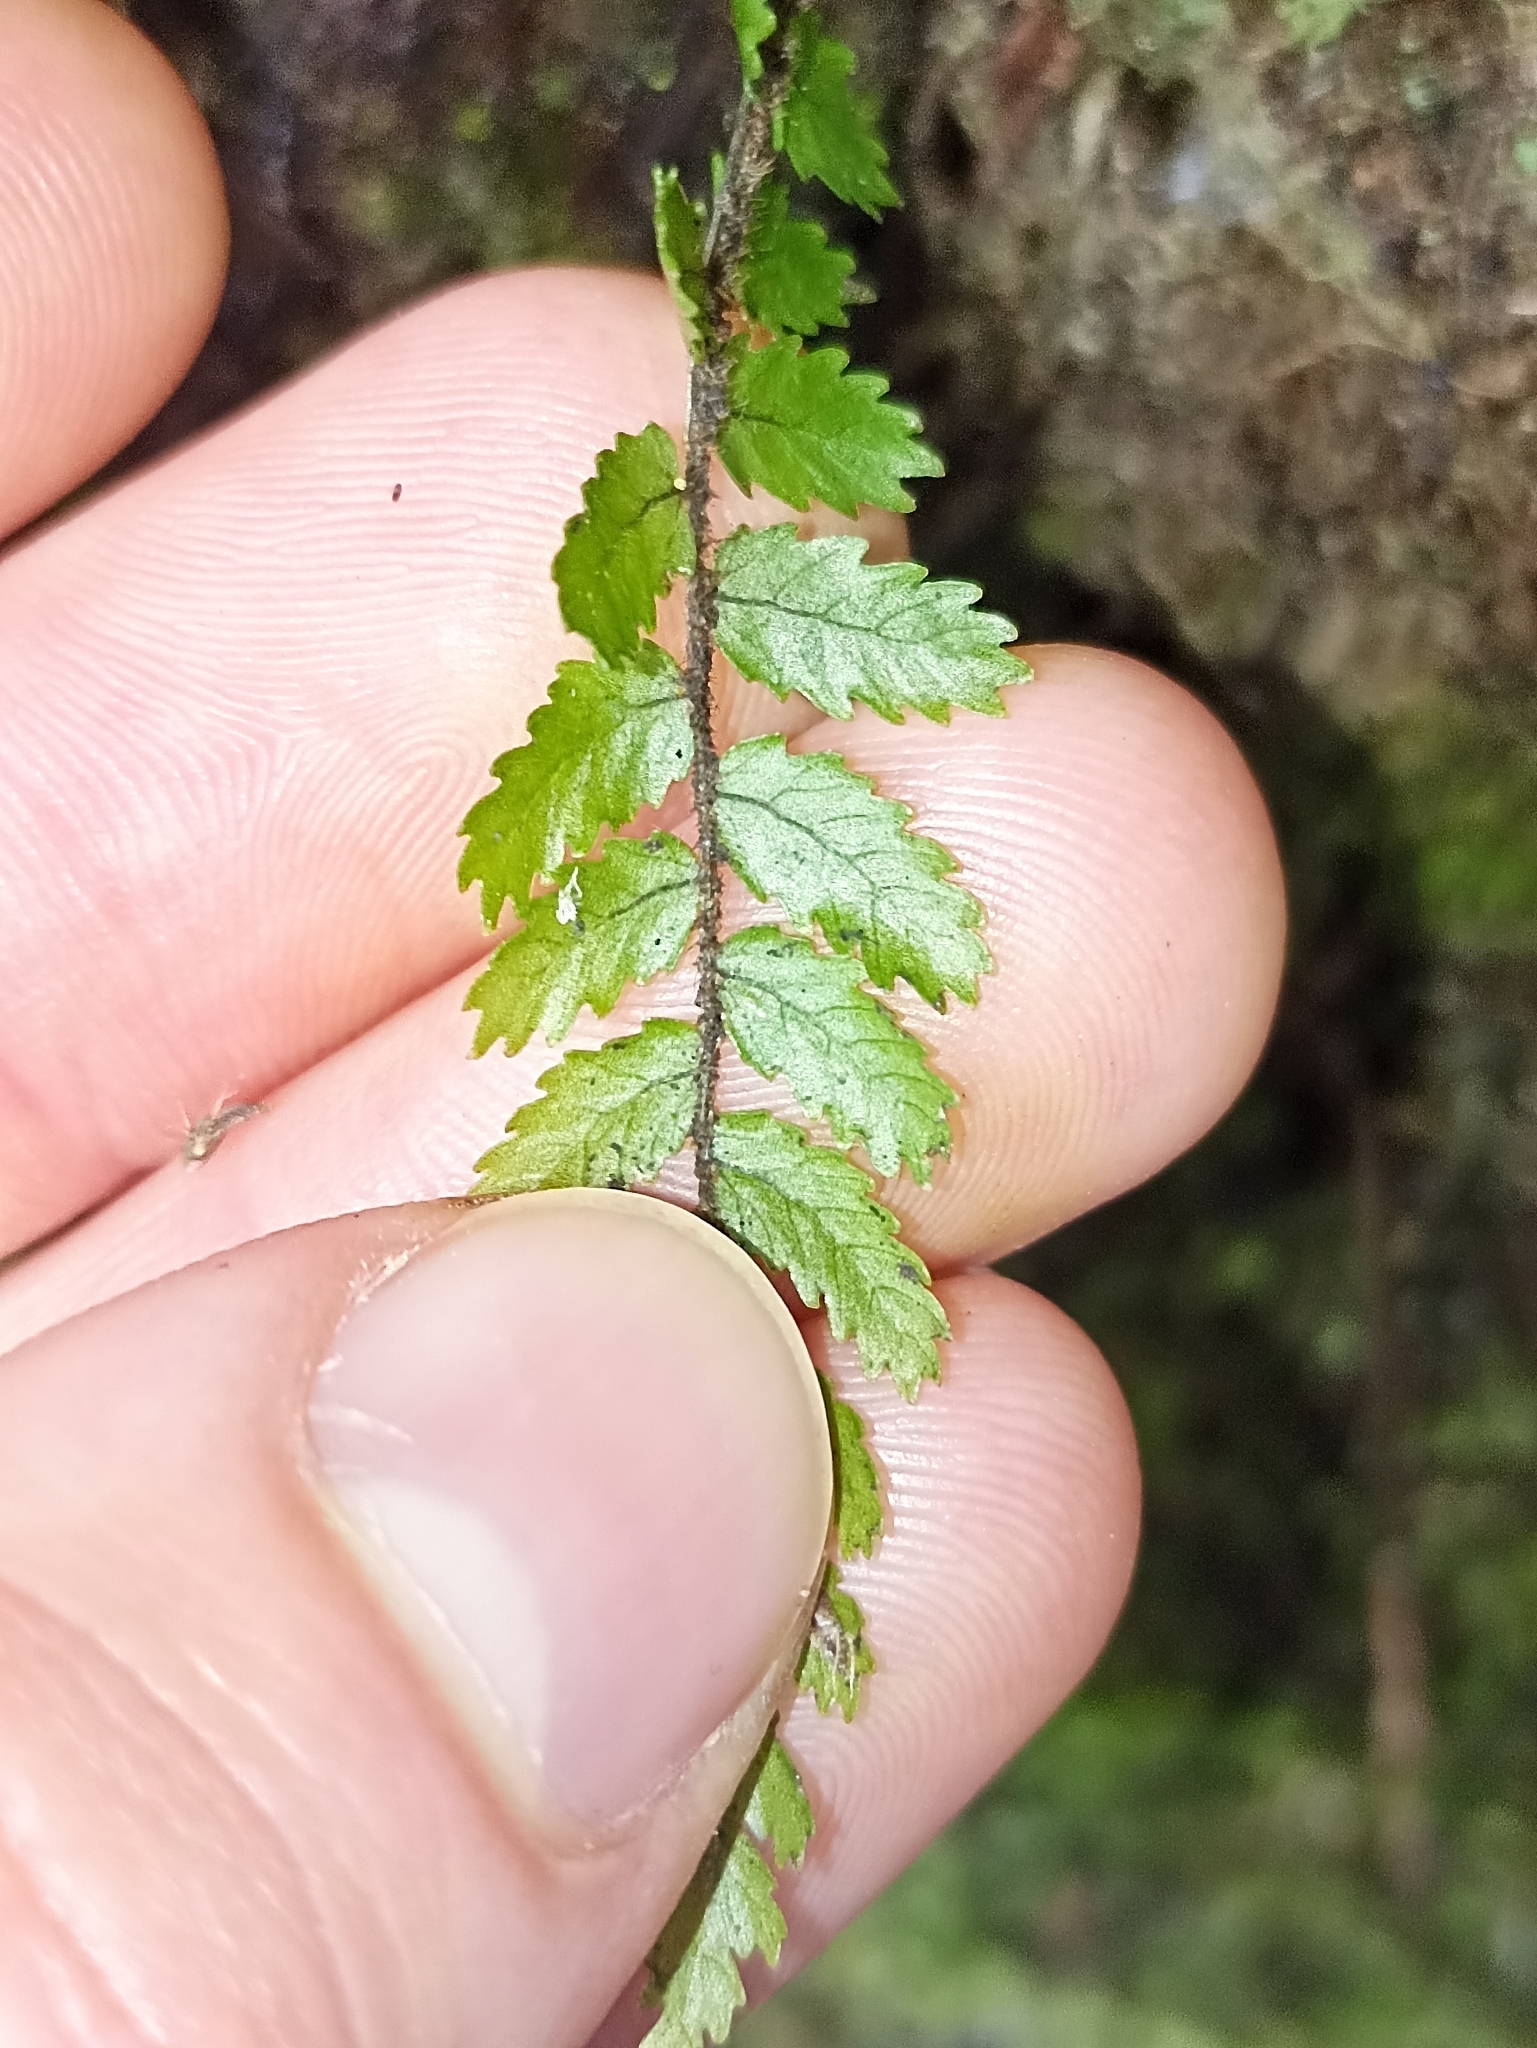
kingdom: Plantae
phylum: Tracheophyta
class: Polypodiopsida
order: Polypodiales
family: Blechnaceae
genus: Icarus
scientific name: Icarus filiformis
